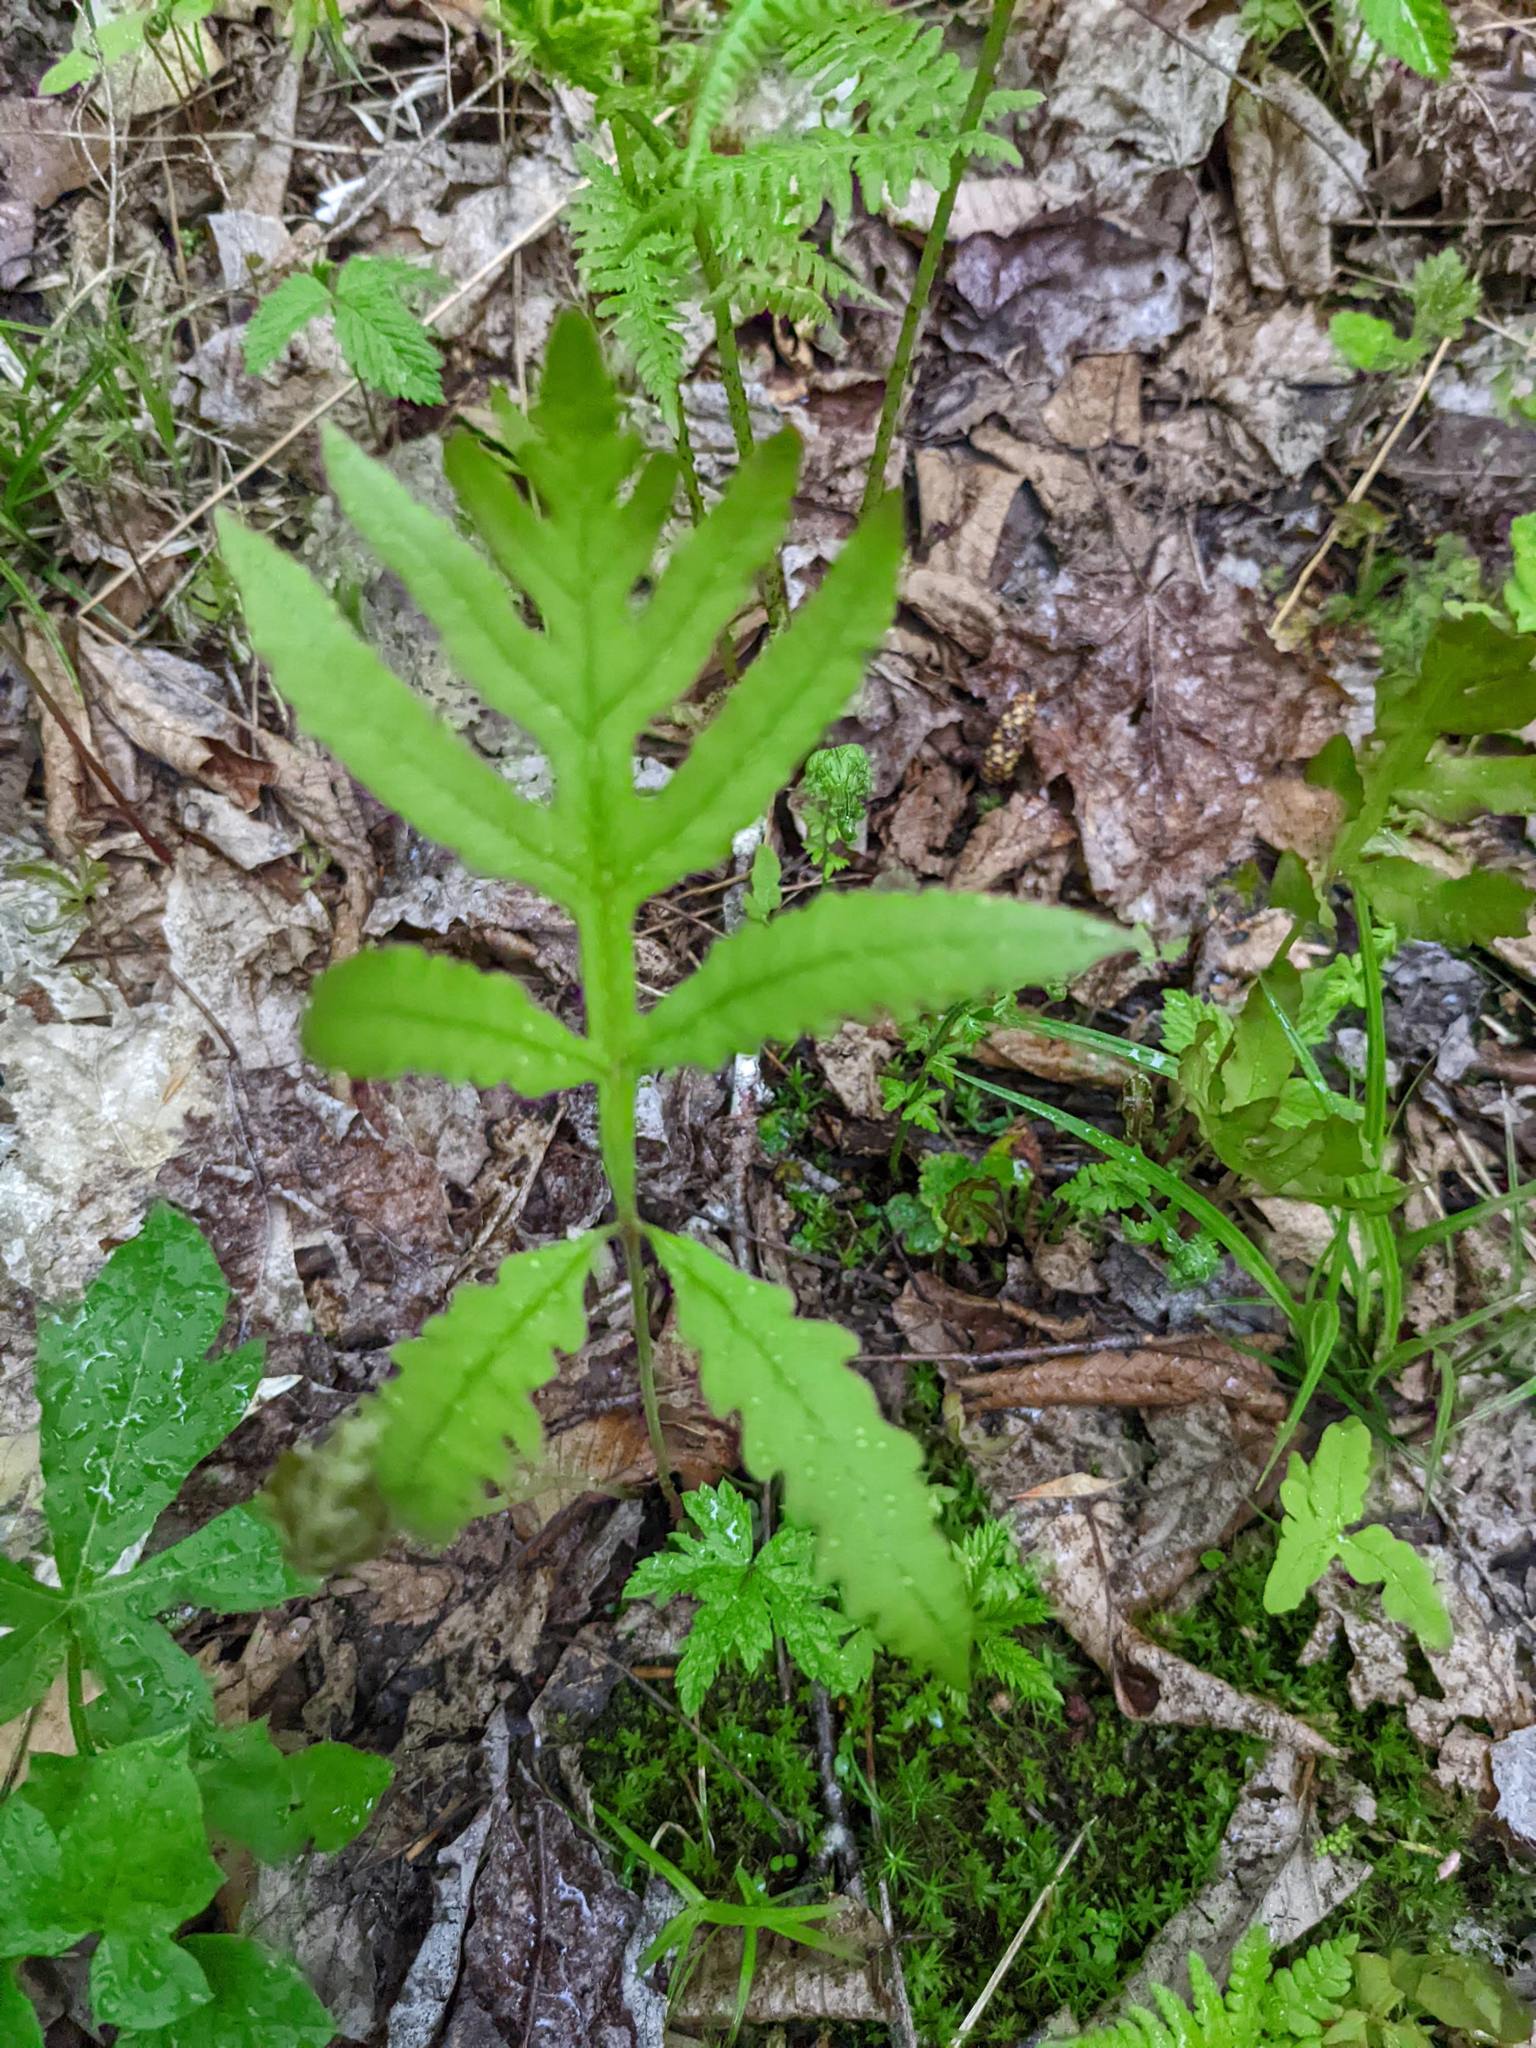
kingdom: Plantae
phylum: Tracheophyta
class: Polypodiopsida
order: Polypodiales
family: Onocleaceae
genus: Onoclea
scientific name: Onoclea sensibilis
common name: Sensitive fern
